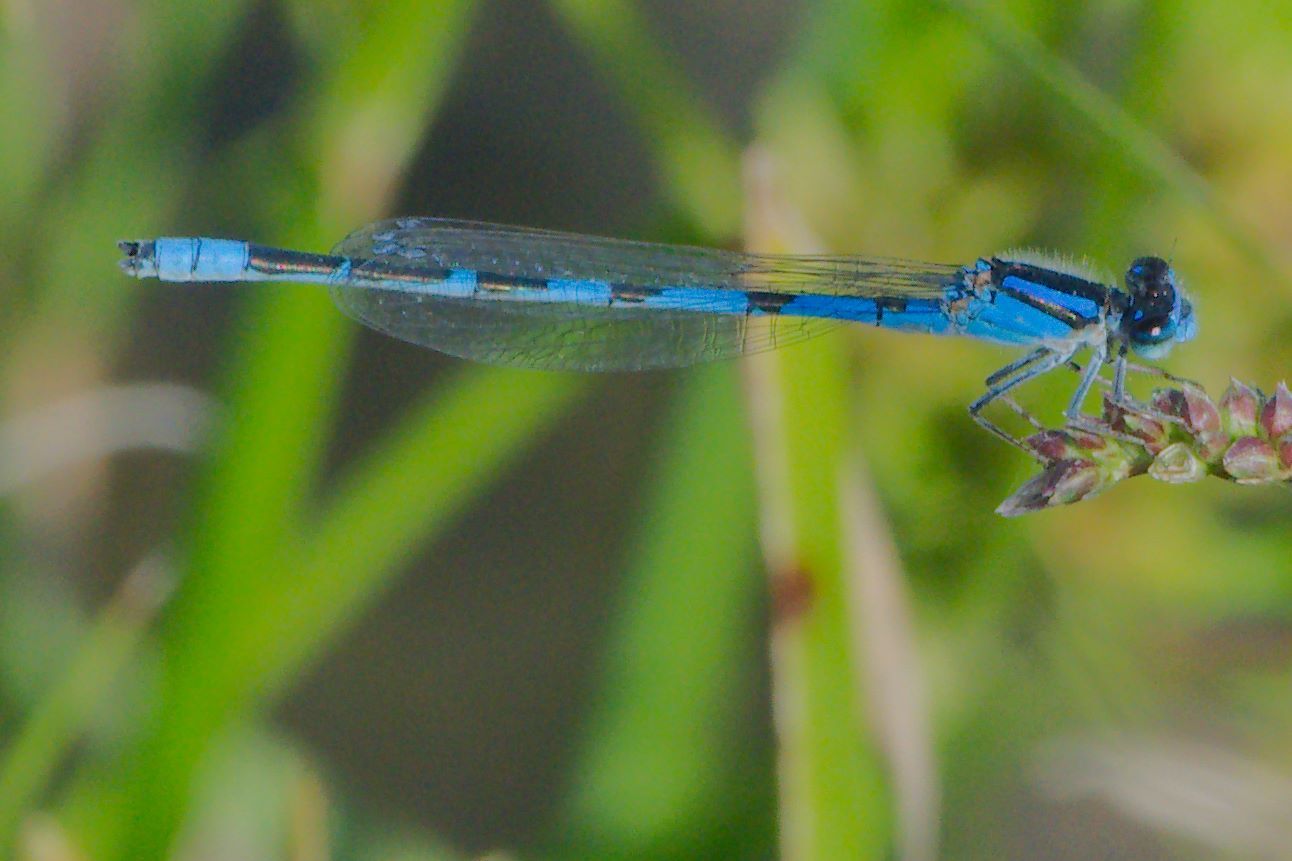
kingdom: Animalia
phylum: Arthropoda
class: Insecta
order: Odonata
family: Coenagrionidae
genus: Enallagma
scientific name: Enallagma civile
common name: Damselfly
